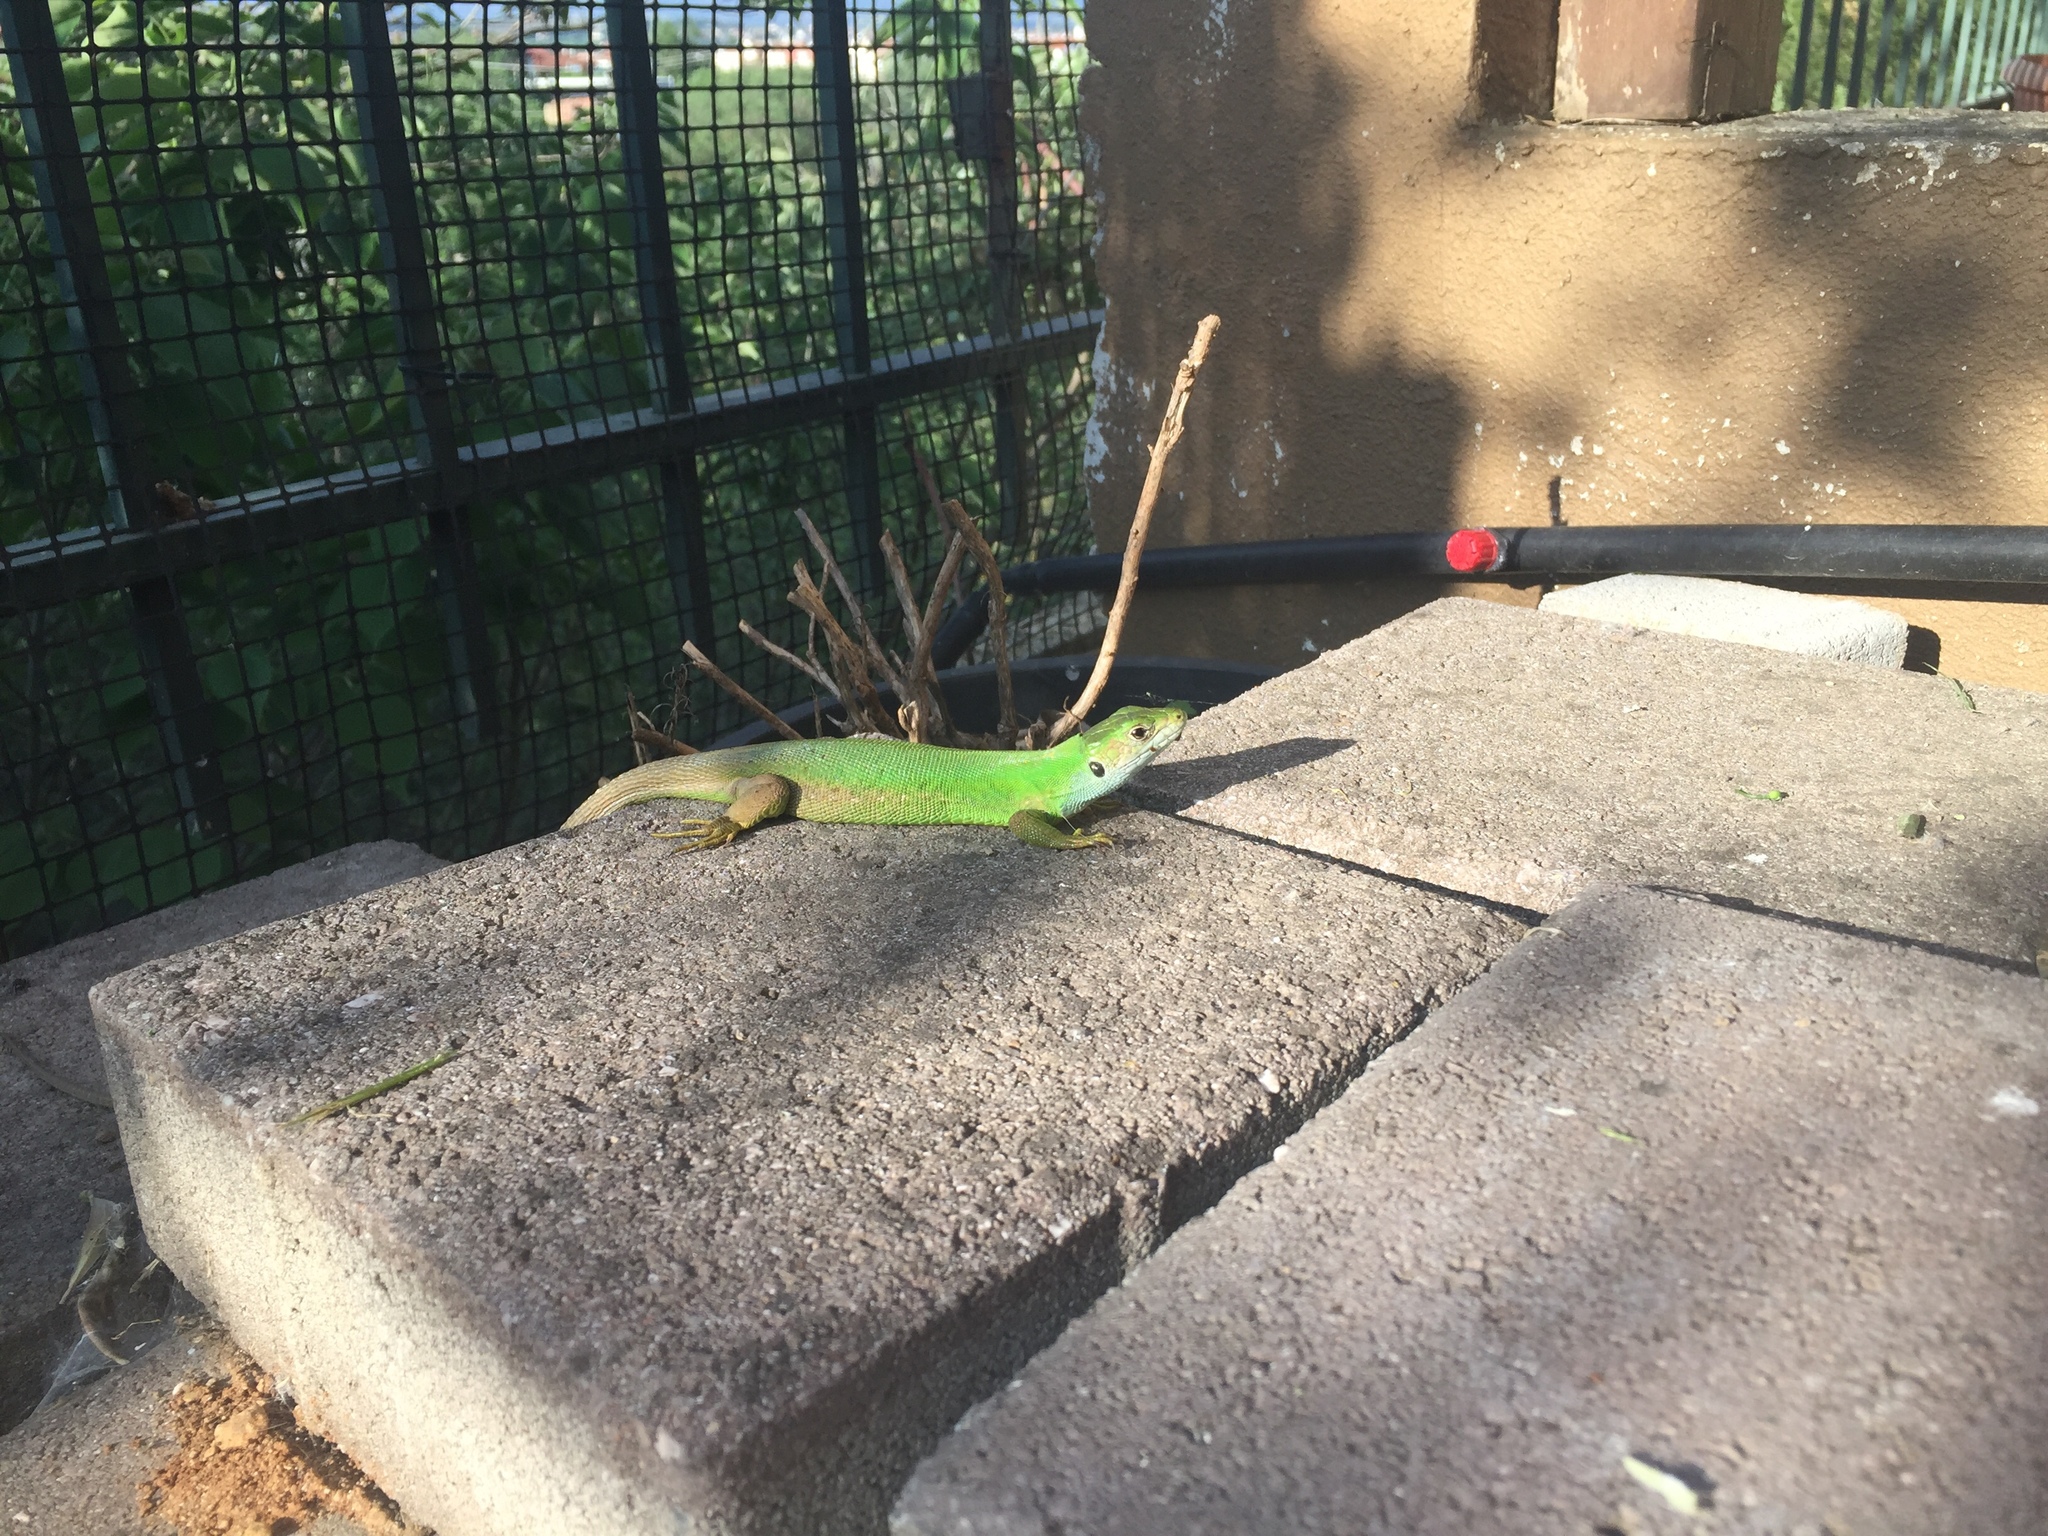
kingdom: Animalia
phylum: Chordata
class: Squamata
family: Lacertidae
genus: Lacerta
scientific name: Lacerta viridis
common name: European green lizard
